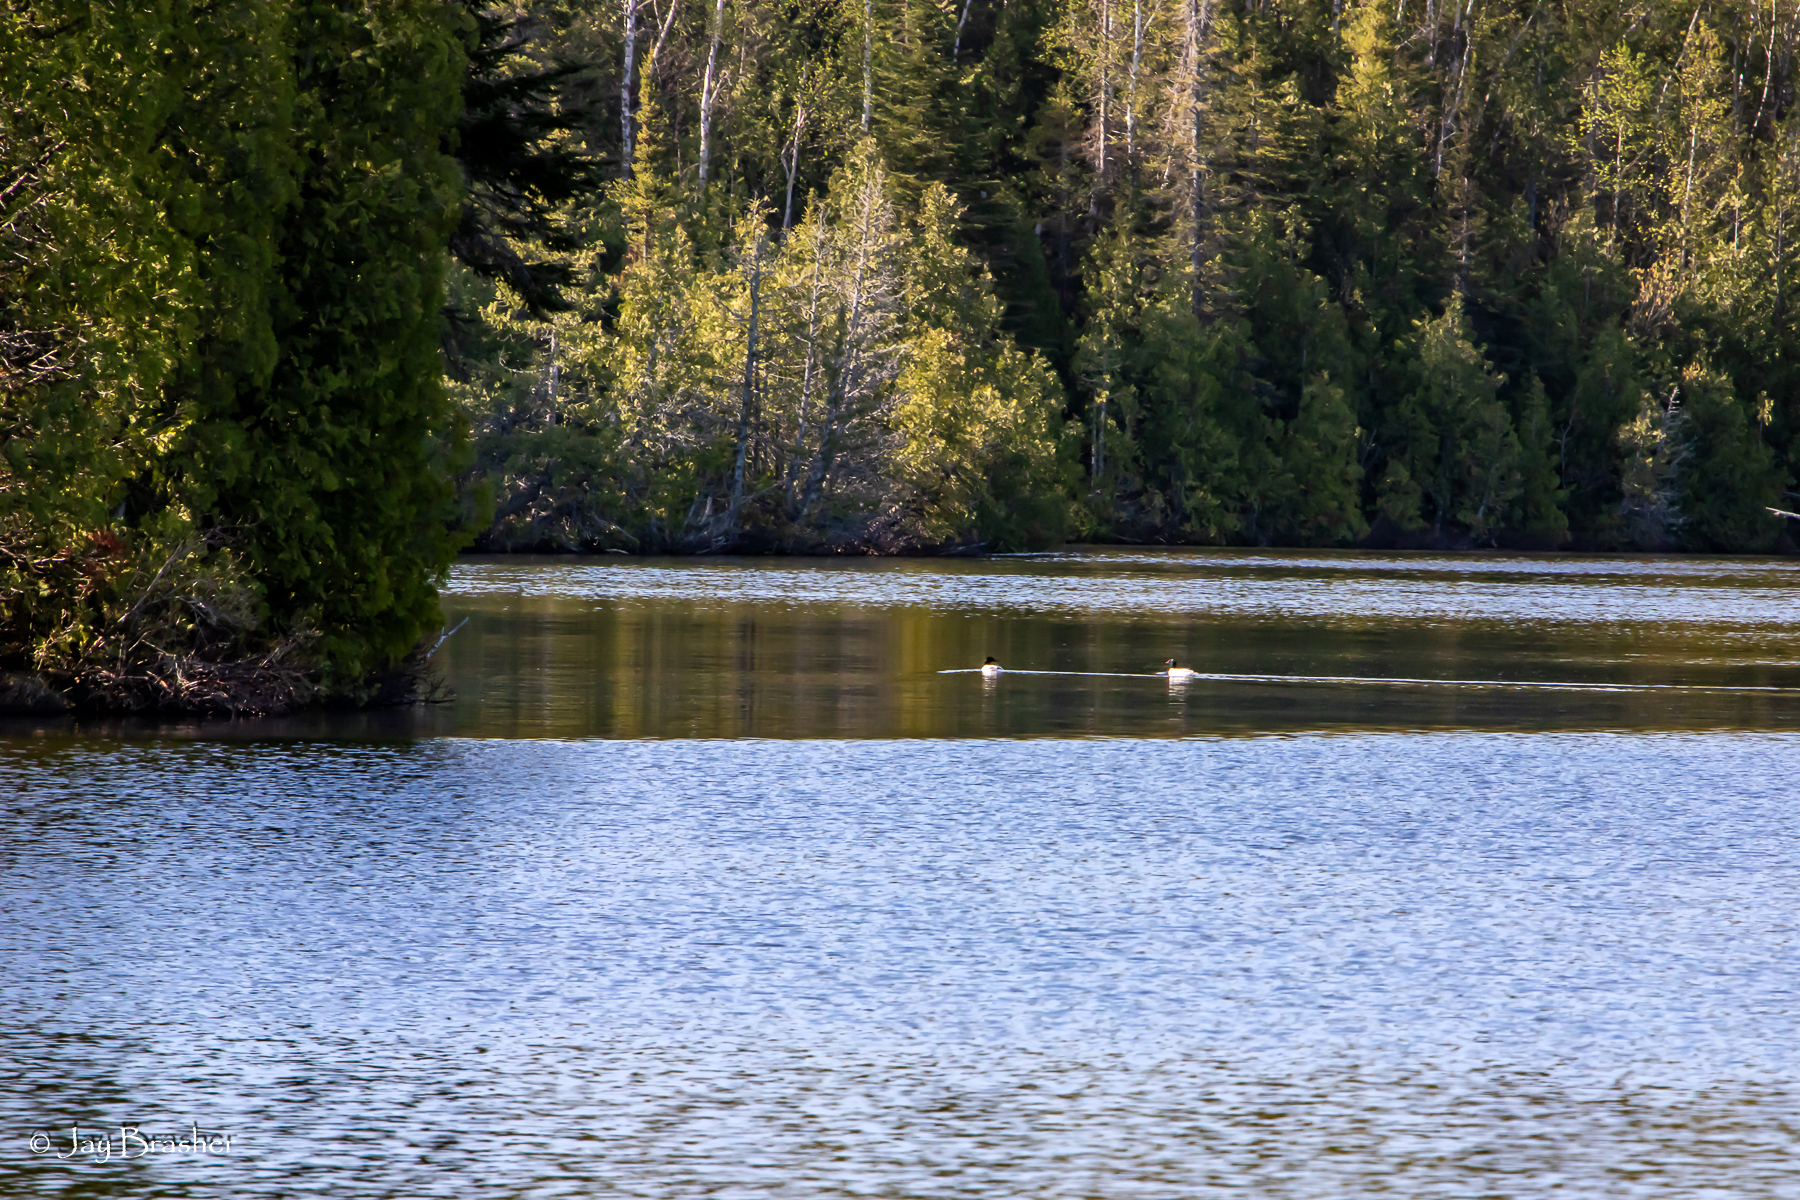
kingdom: Animalia
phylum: Chordata
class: Aves
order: Anseriformes
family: Anatidae
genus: Mergus
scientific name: Mergus merganser
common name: Common merganser
